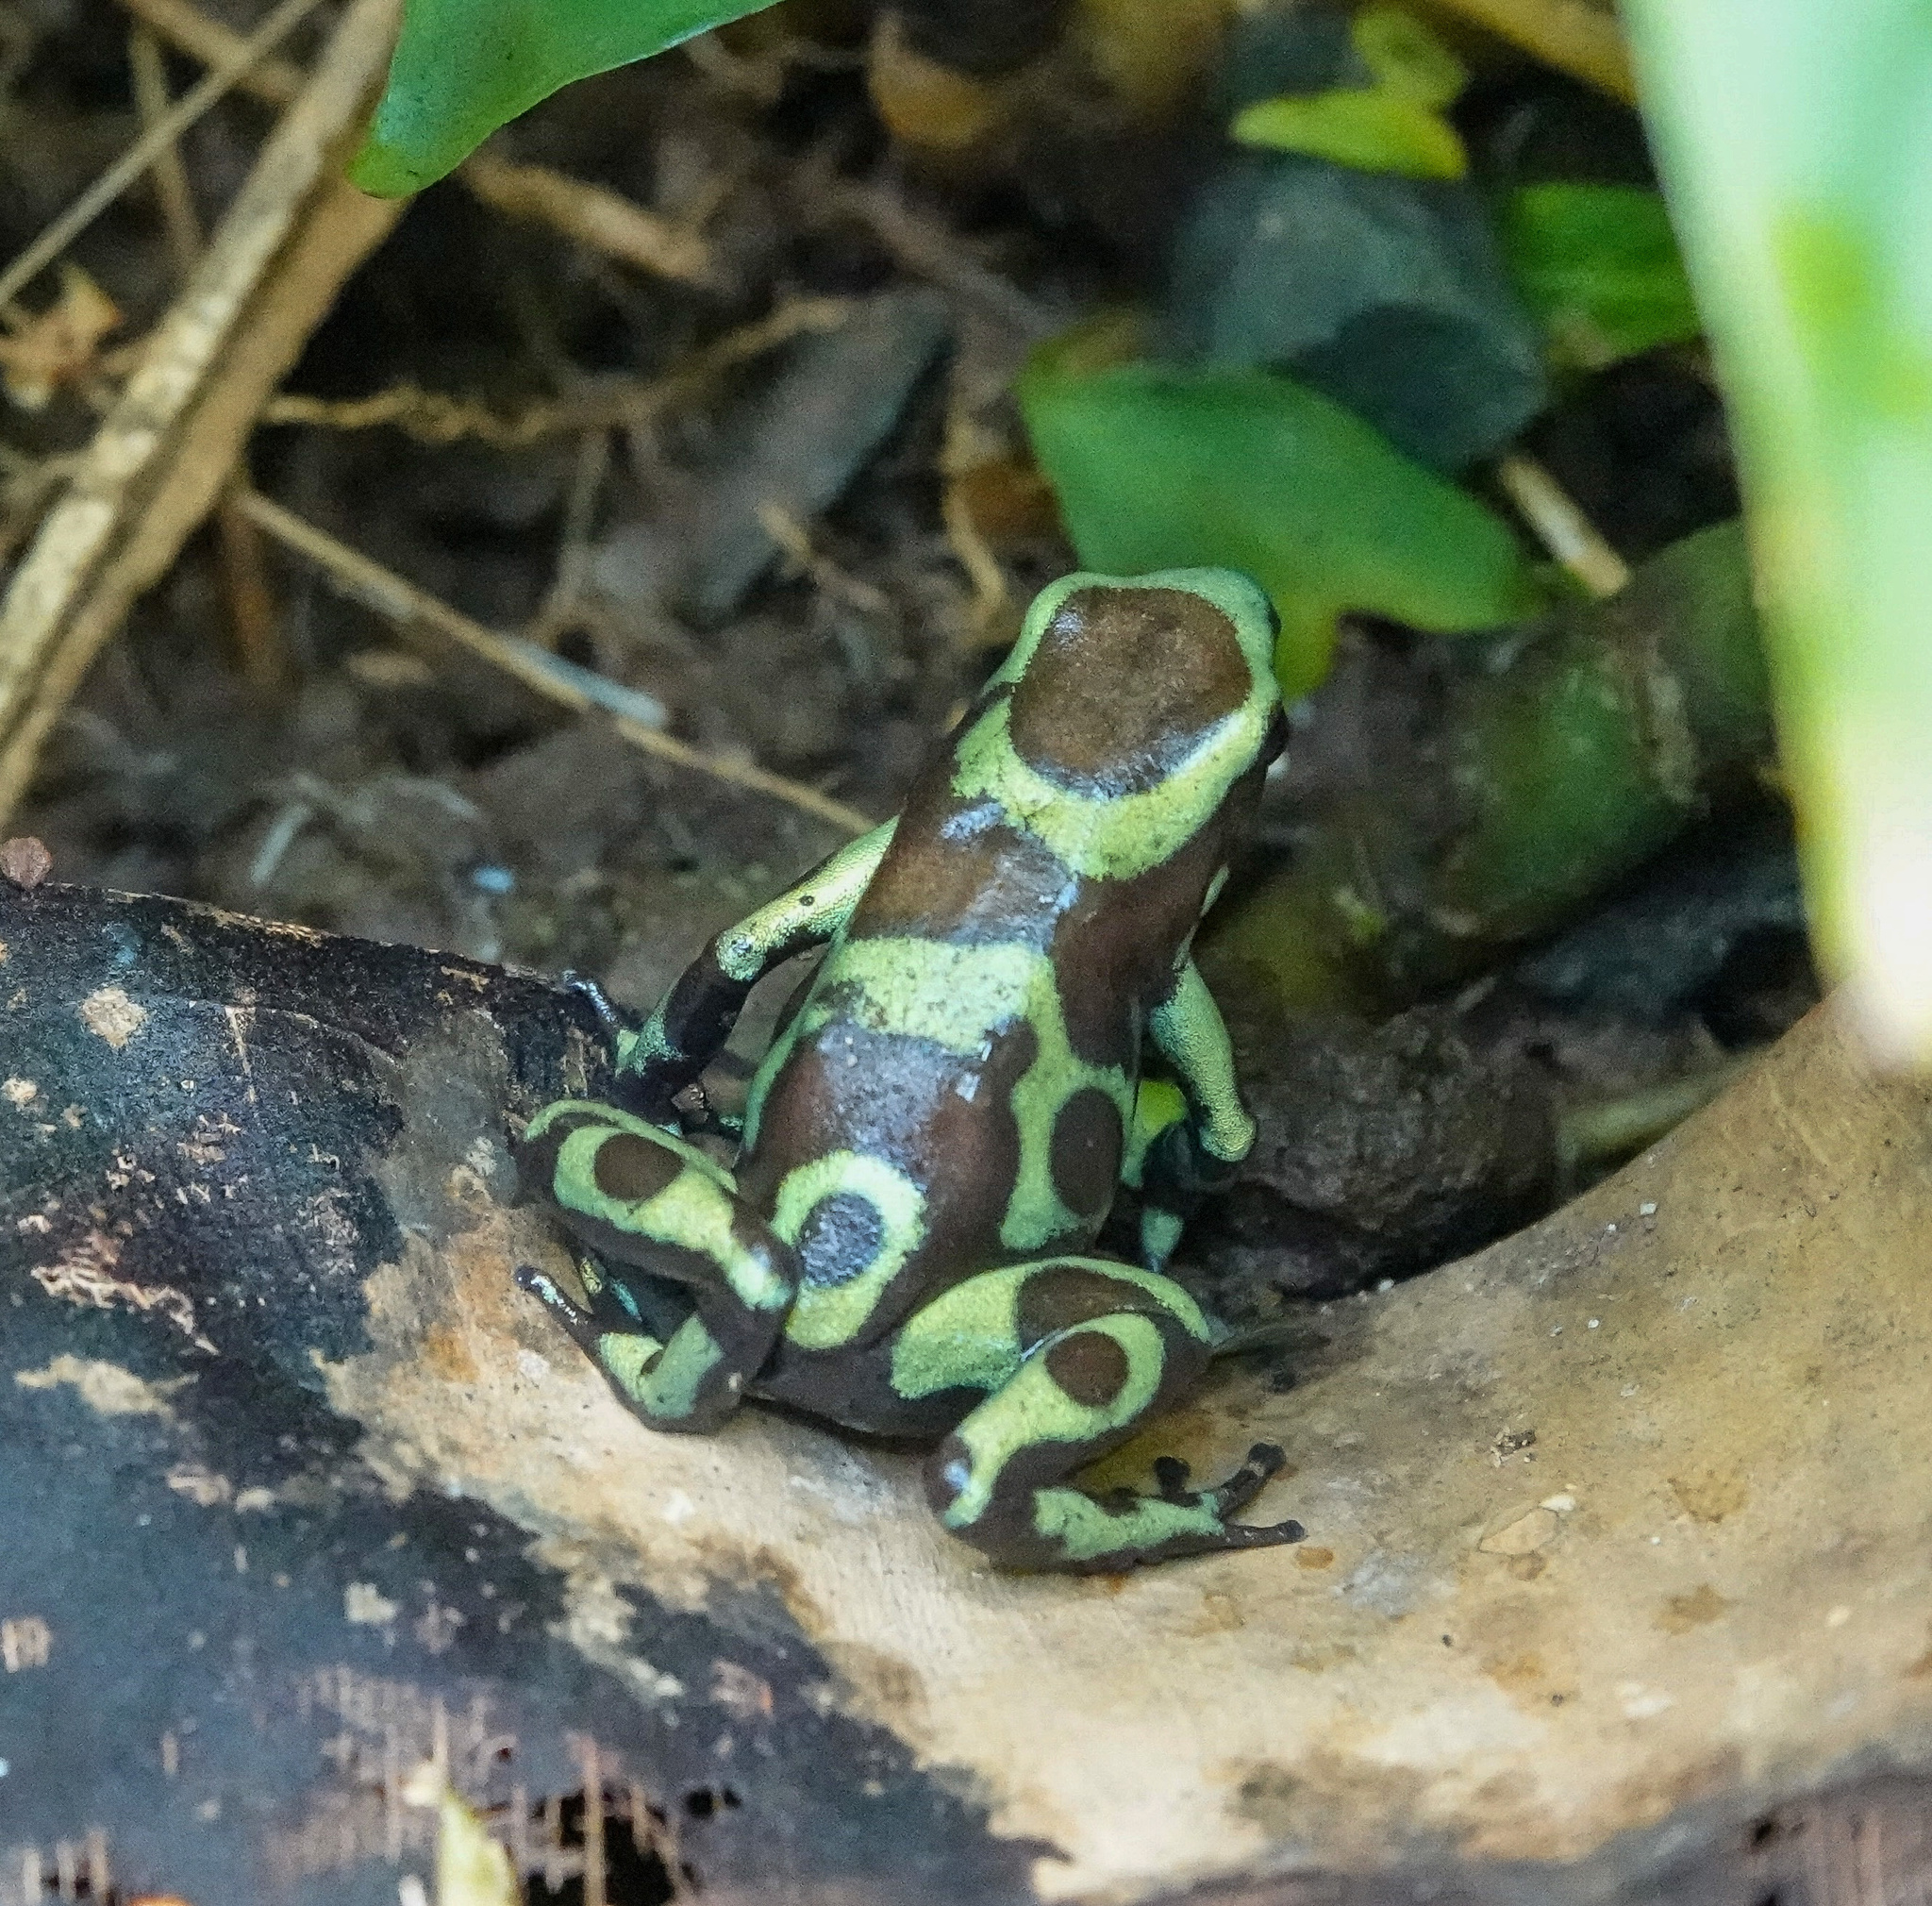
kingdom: Animalia
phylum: Chordata
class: Amphibia
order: Anura
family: Dendrobatidae
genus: Dendrobates
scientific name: Dendrobates auratus
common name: Green and black poison dart frog
